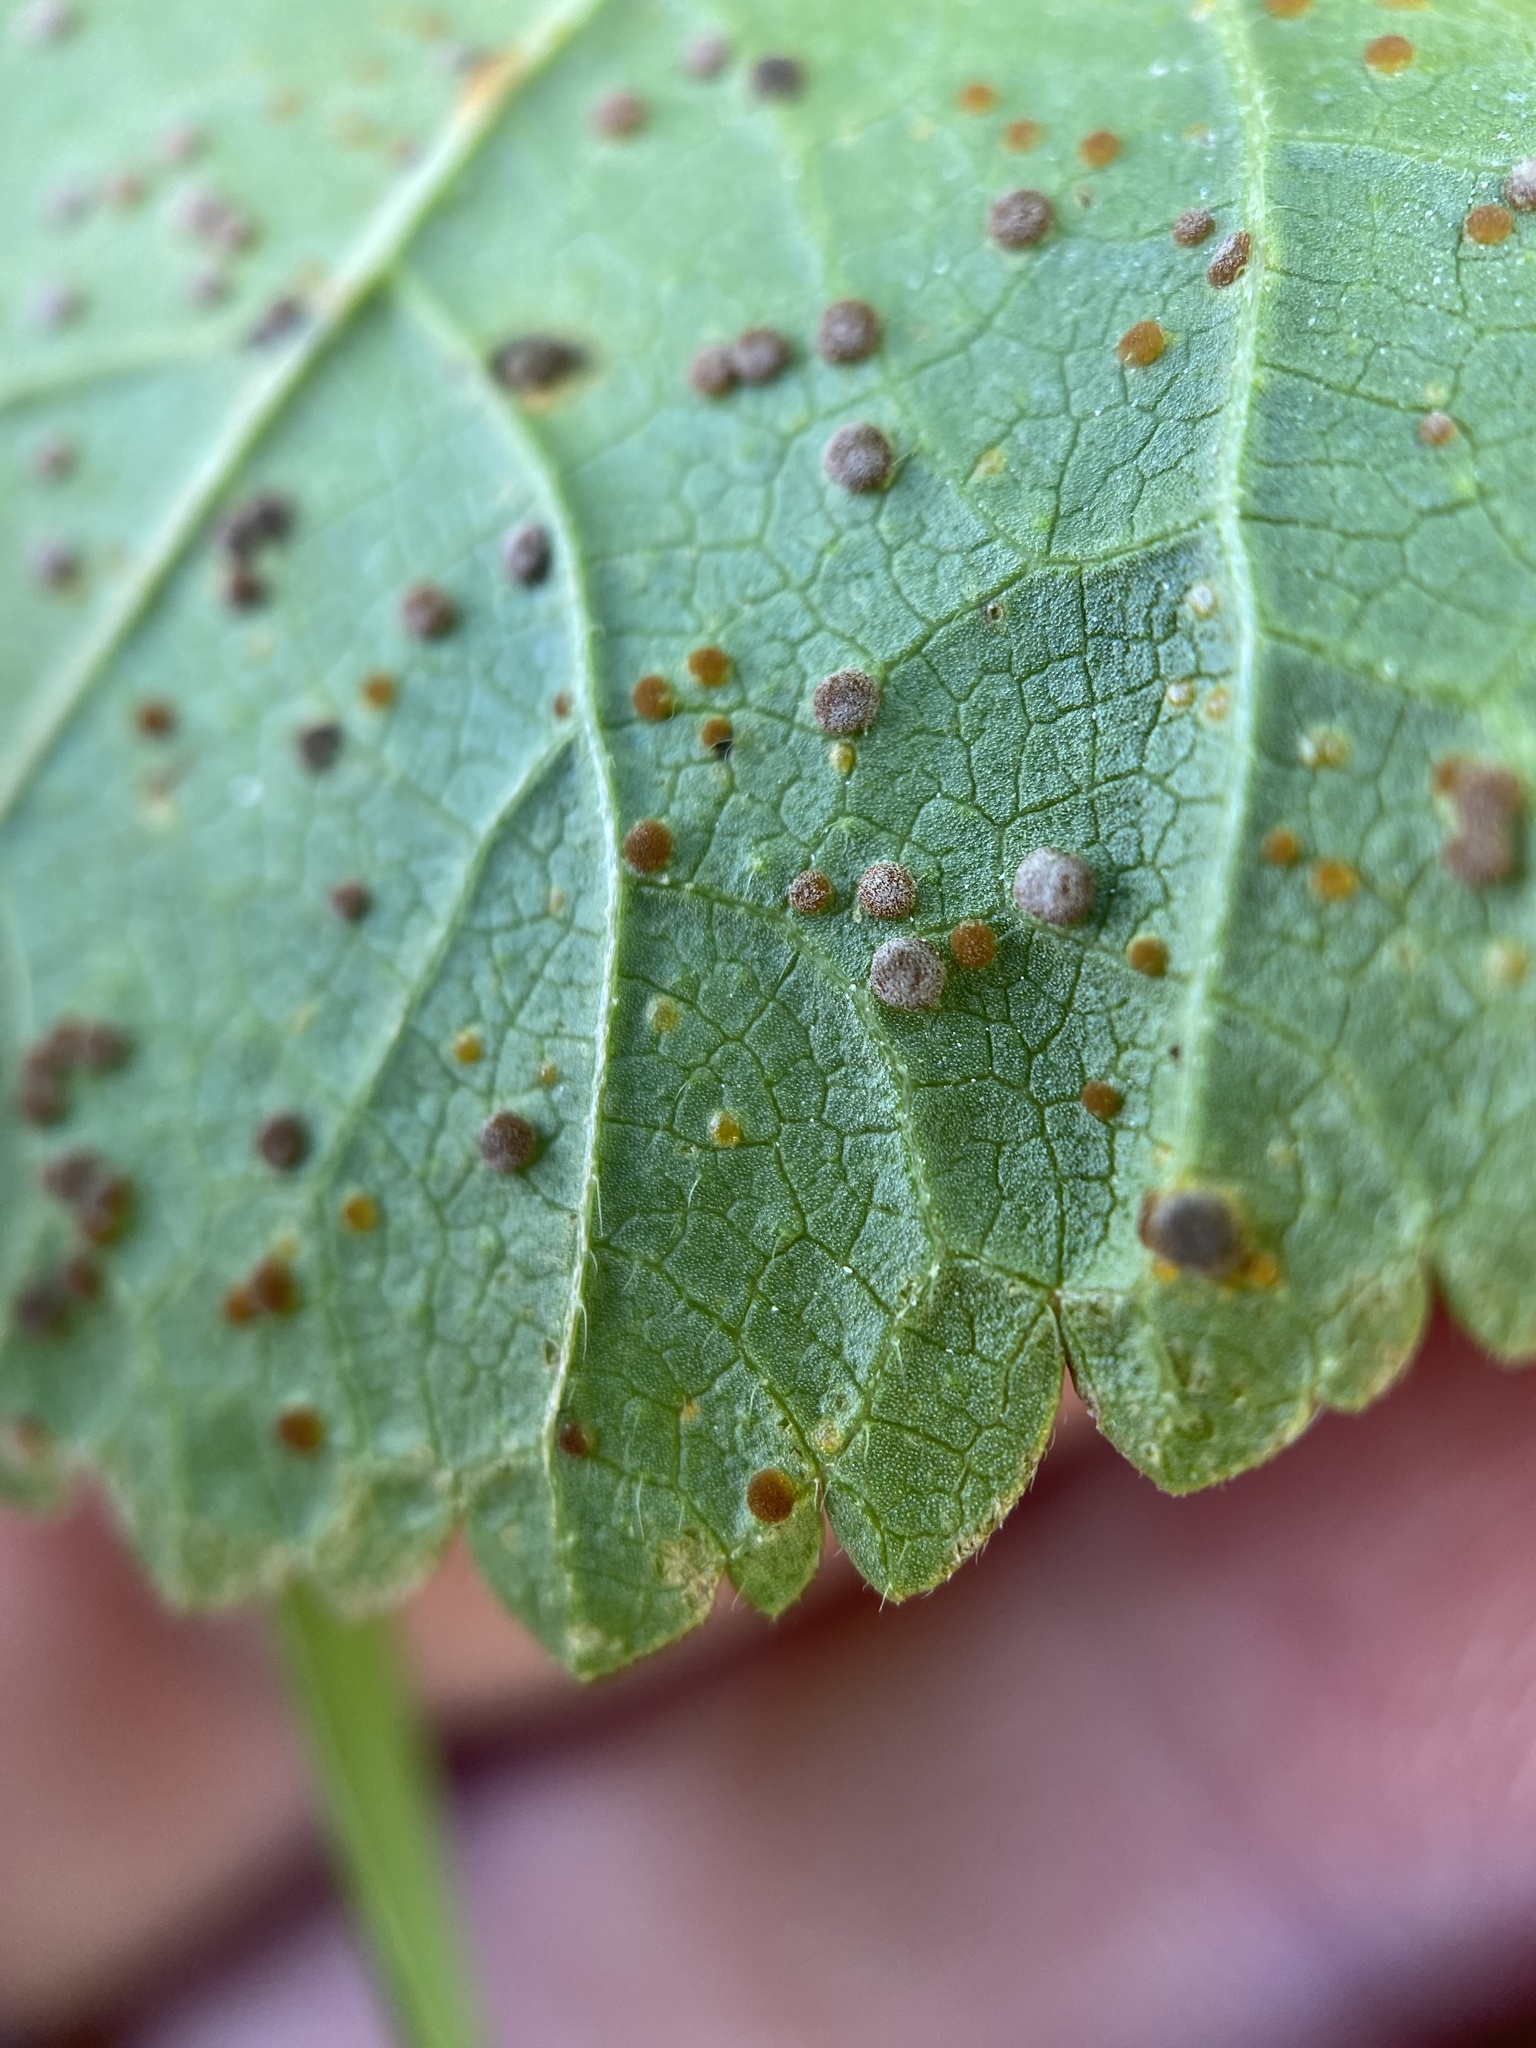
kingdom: Fungi
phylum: Basidiomycota
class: Pucciniomycetes
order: Pucciniales
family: Pucciniaceae
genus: Puccinia
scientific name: Puccinia malvacearum
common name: Hollyhock rust
